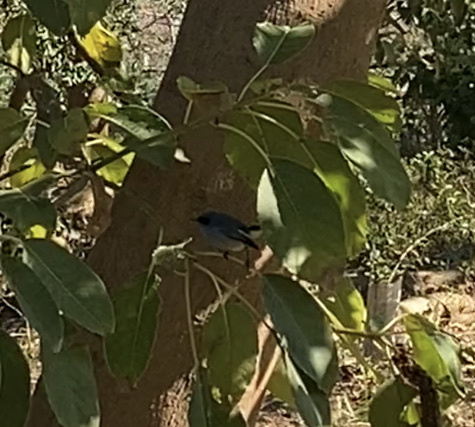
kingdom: Animalia
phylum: Chordata
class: Aves
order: Passeriformes
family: Polioptilidae
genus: Polioptila
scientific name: Polioptila dumicola
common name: Masked gnatcatcher
